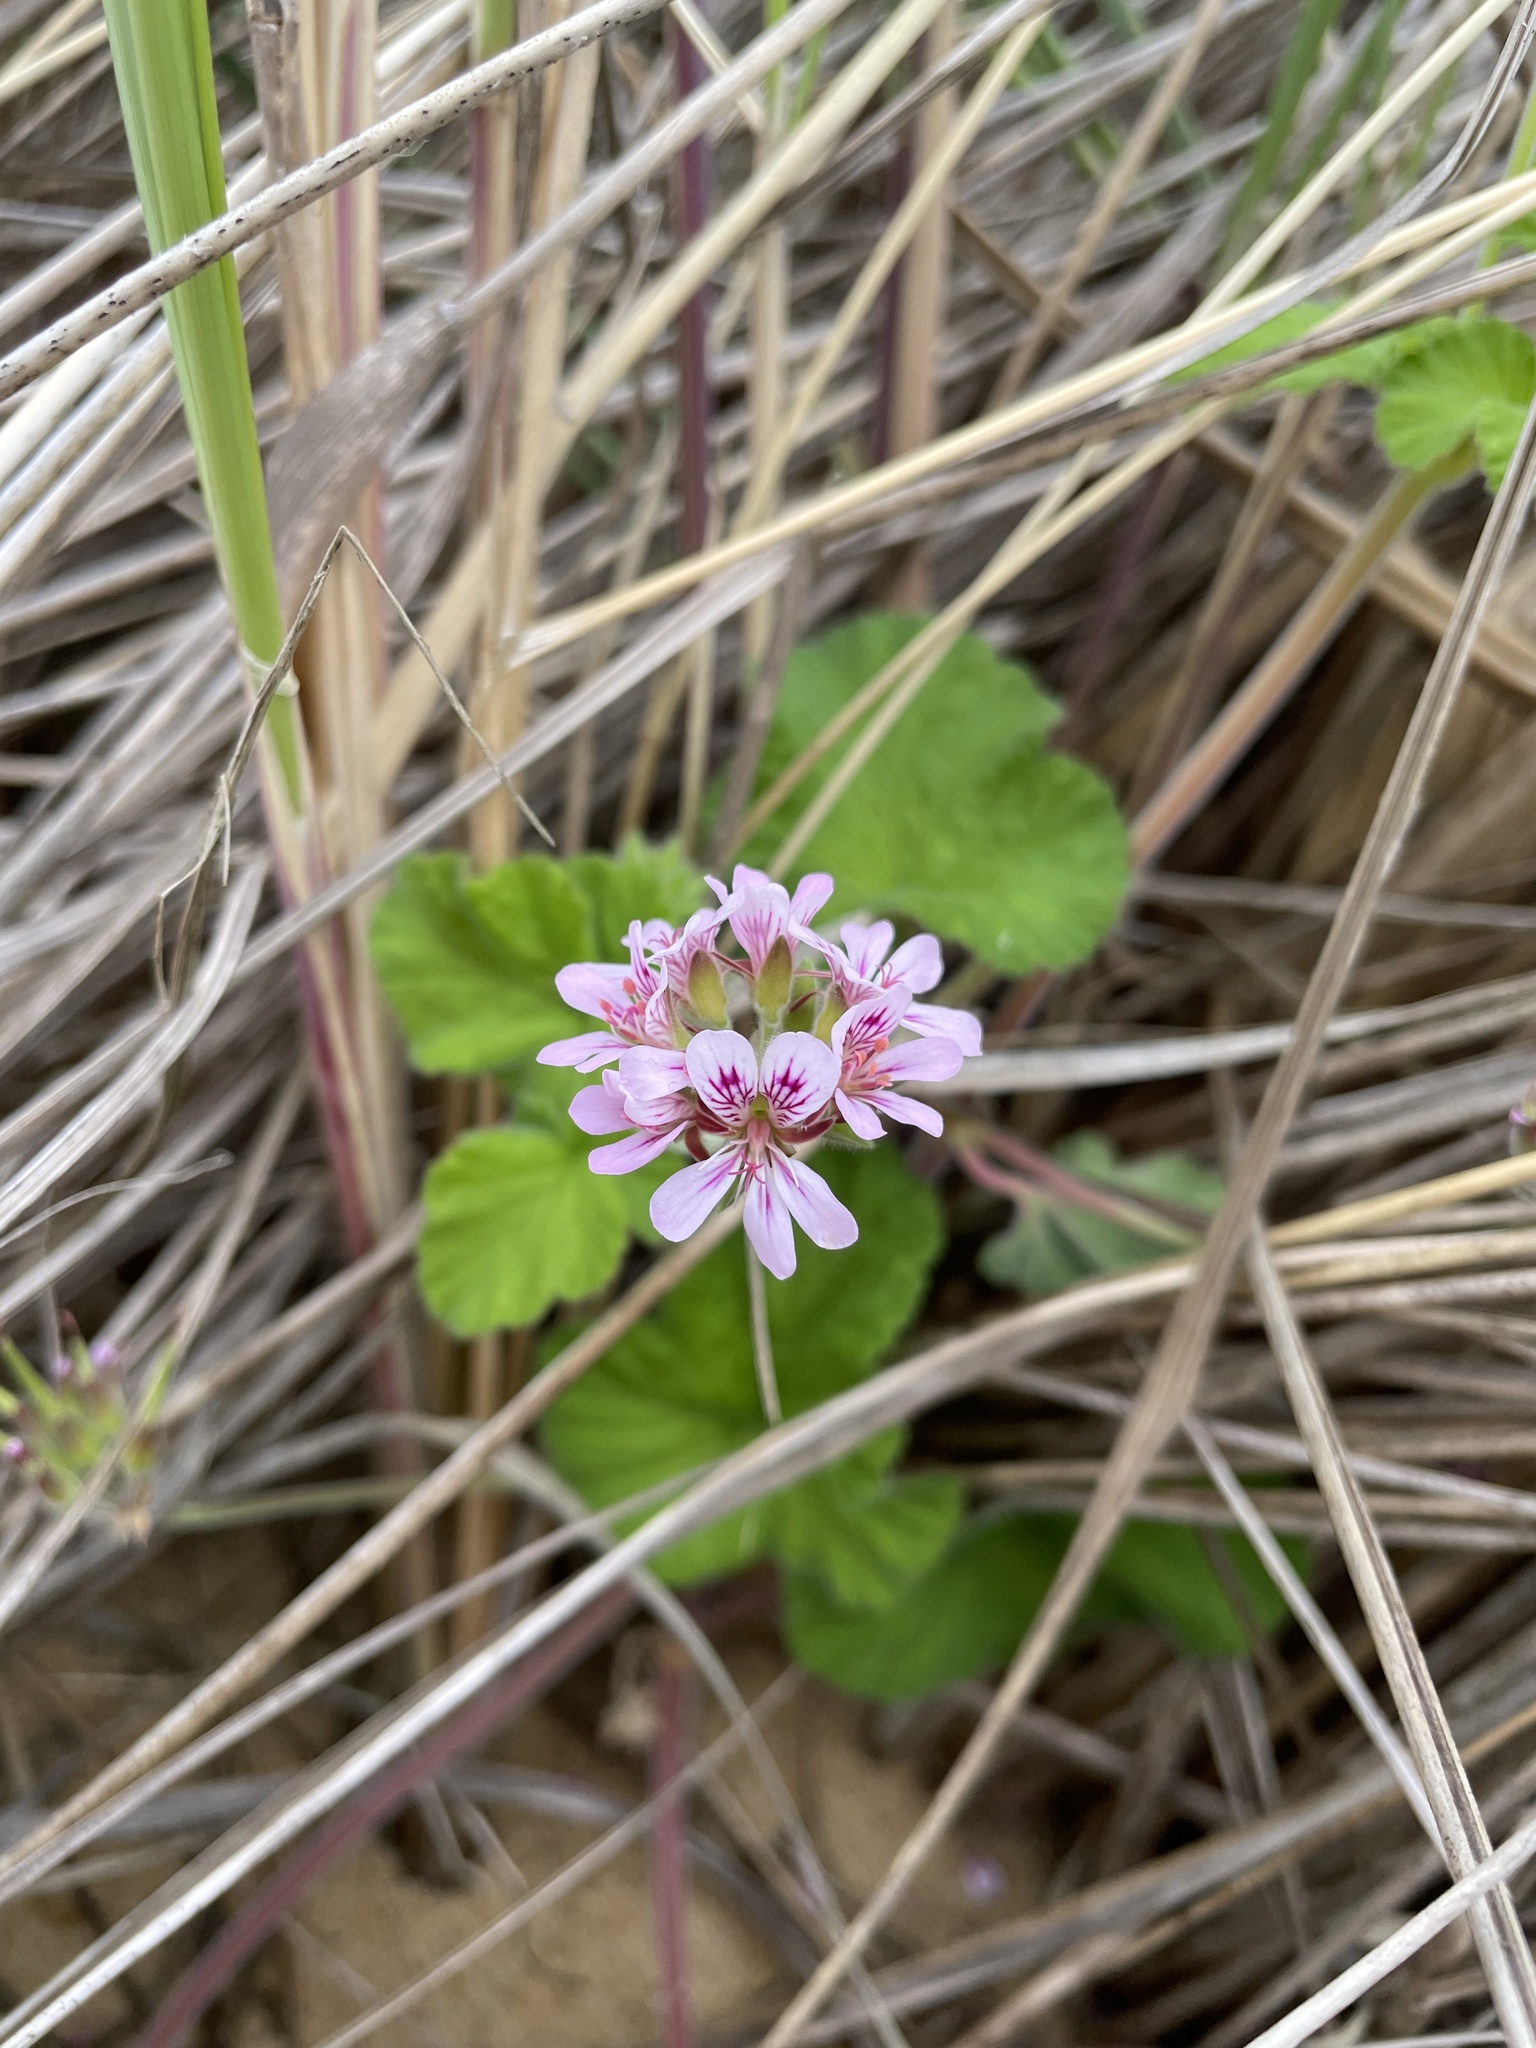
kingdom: Plantae
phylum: Tracheophyta
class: Magnoliopsida
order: Geraniales
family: Geraniaceae
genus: Pelargonium
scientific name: Pelargonium australe
